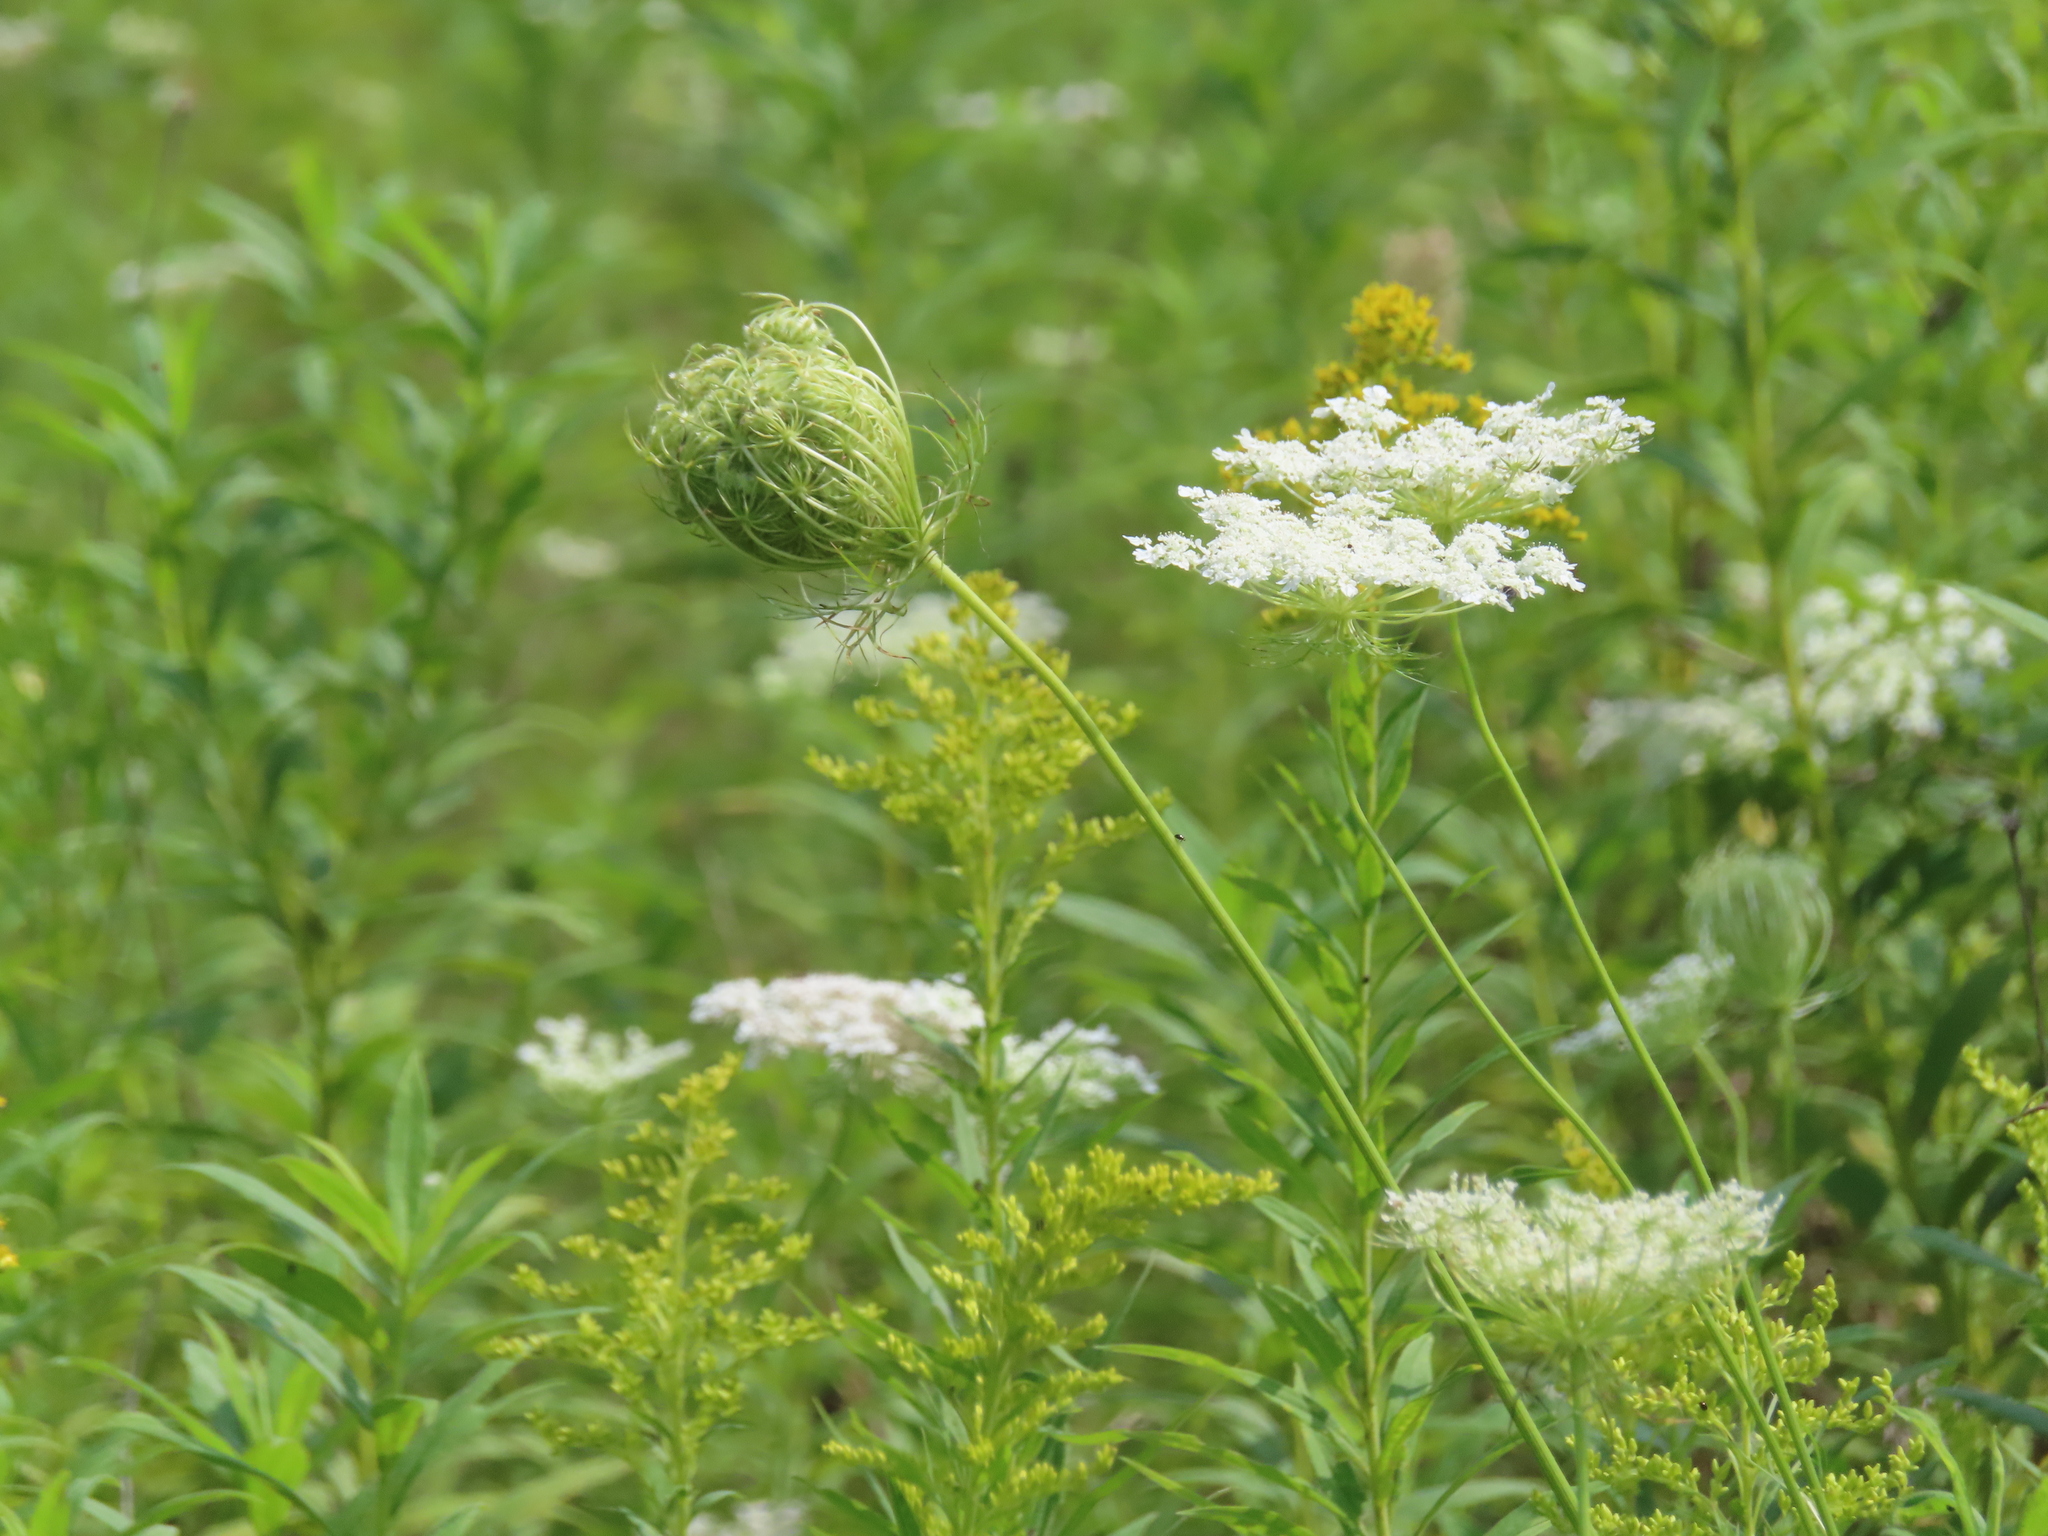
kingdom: Plantae
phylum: Tracheophyta
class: Magnoliopsida
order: Apiales
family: Apiaceae
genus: Daucus
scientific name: Daucus carota
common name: Wild carrot
